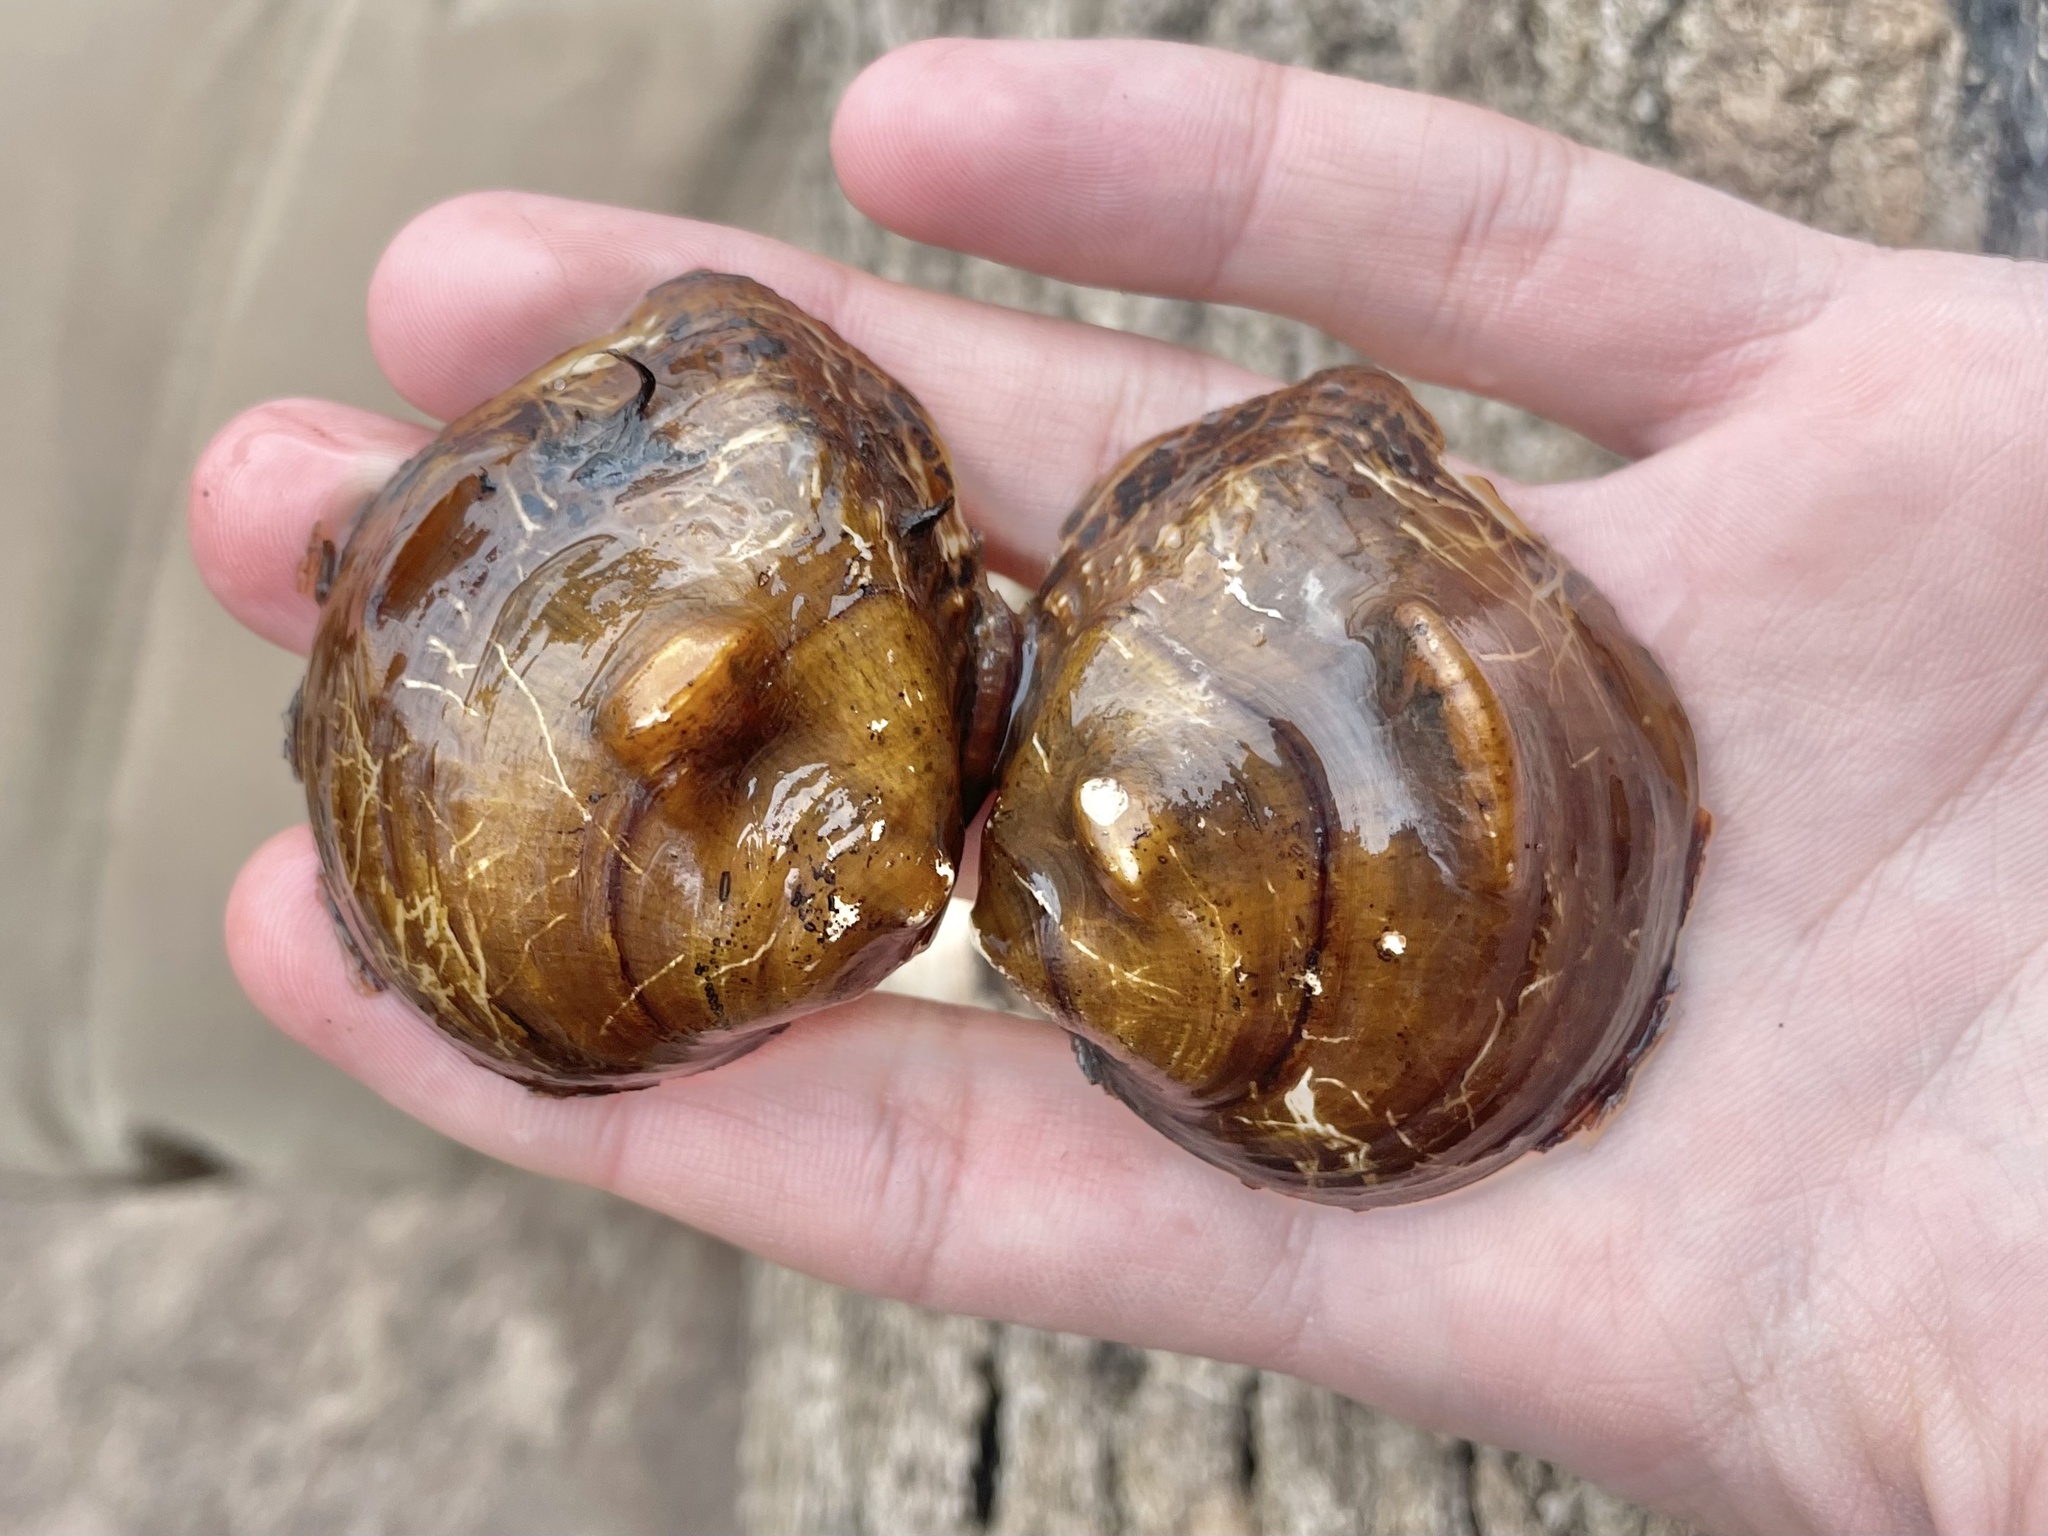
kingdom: Animalia
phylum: Mollusca
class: Bivalvia
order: Unionida
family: Unionidae
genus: Obliquaria
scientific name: Obliquaria reflexa
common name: Threehorn wartyback
